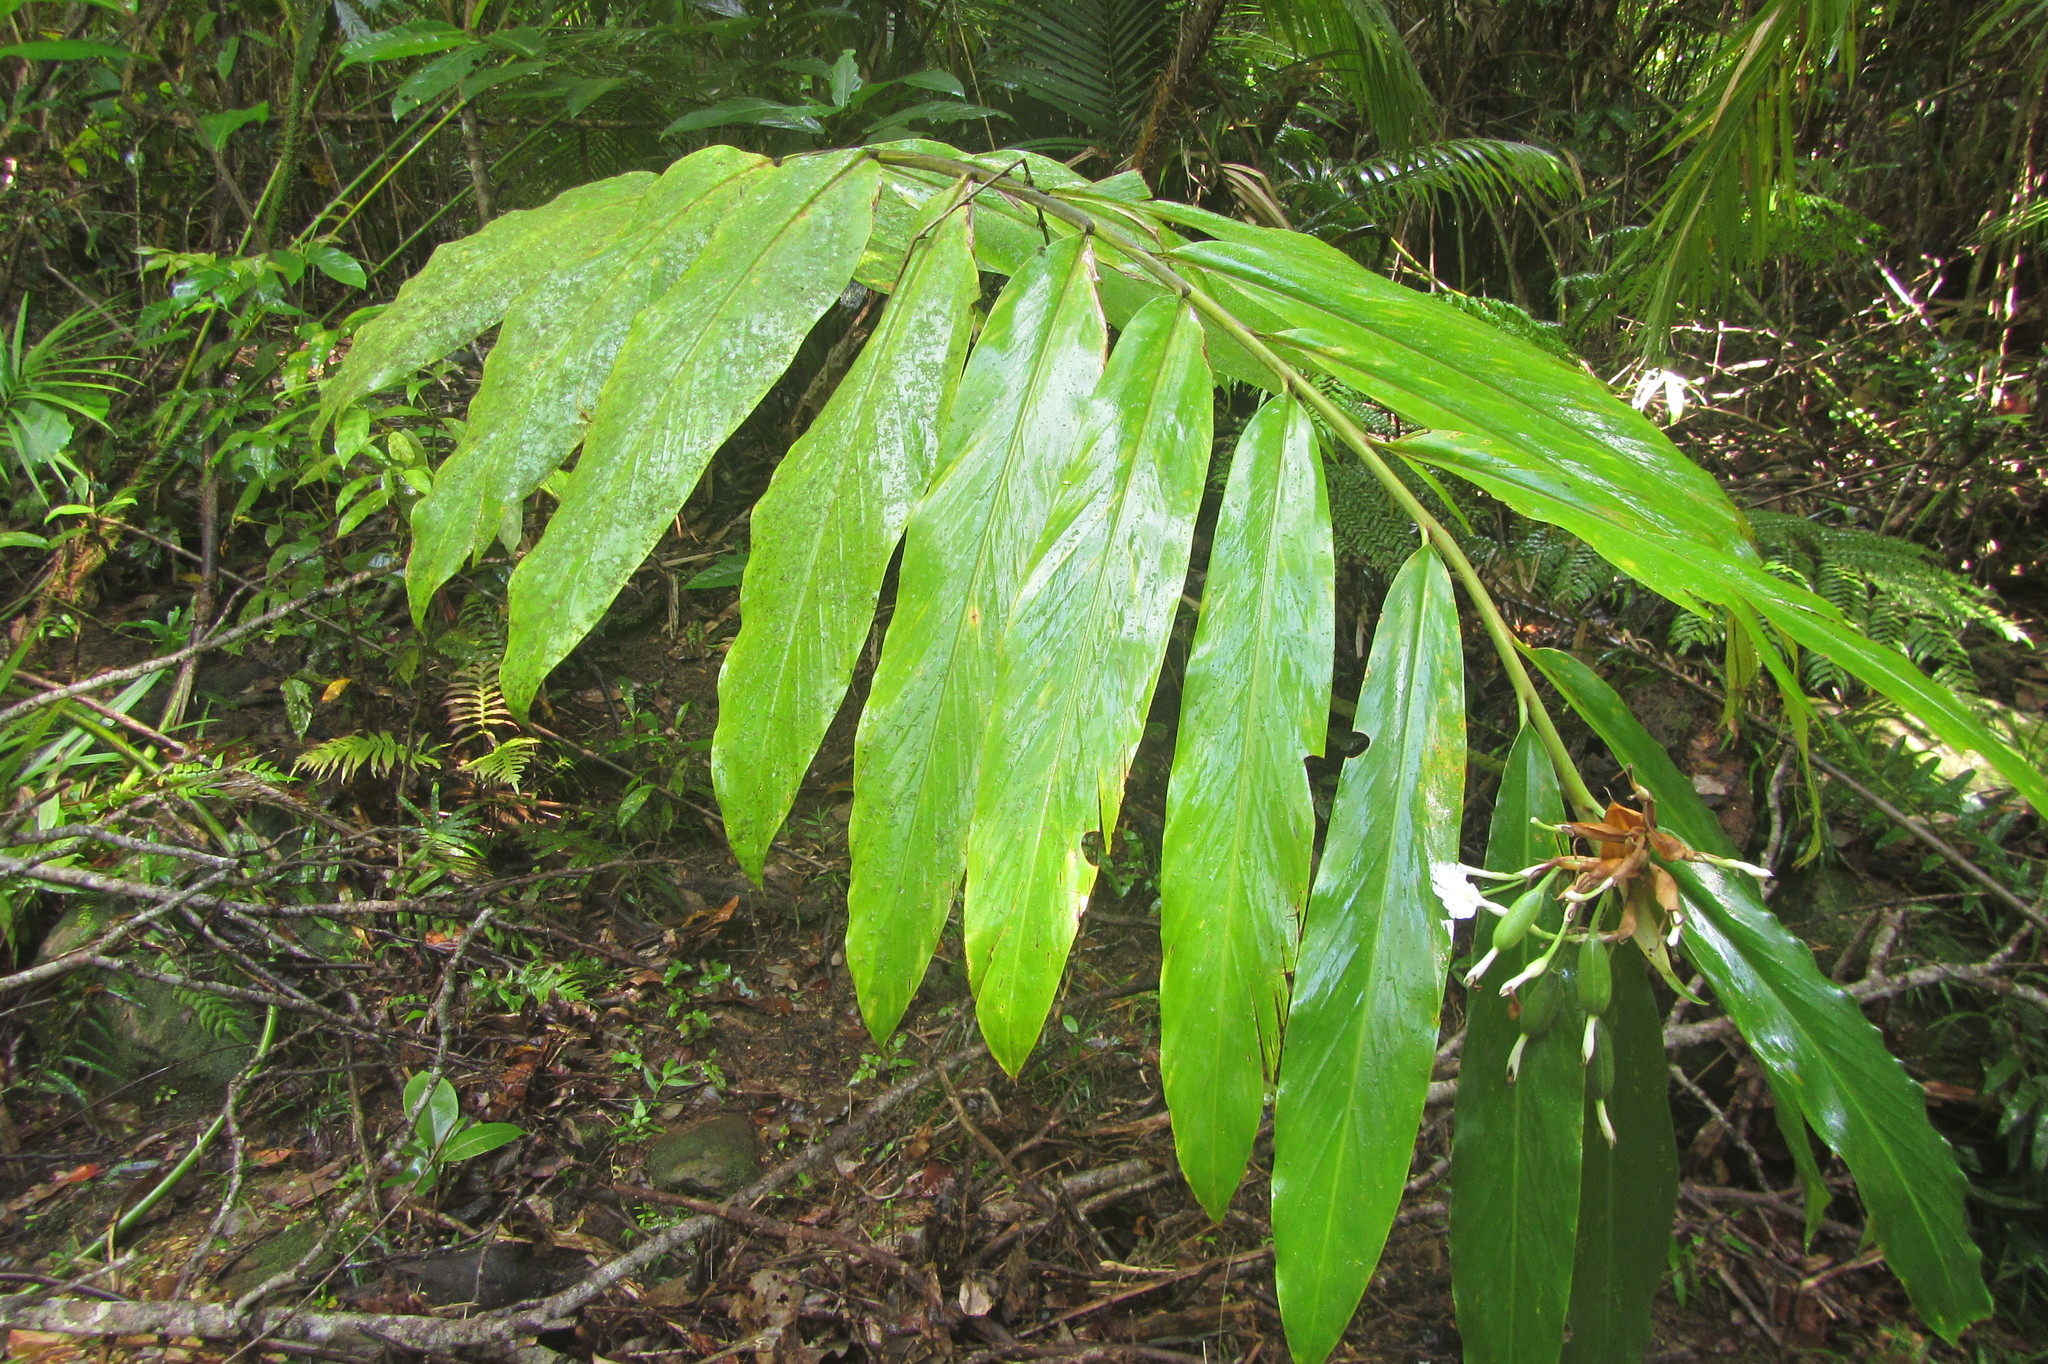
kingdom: Plantae
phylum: Tracheophyta
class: Liliopsida
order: Zingiberales
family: Zingiberaceae
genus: Alpinia
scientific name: Alpinia arctiflora
